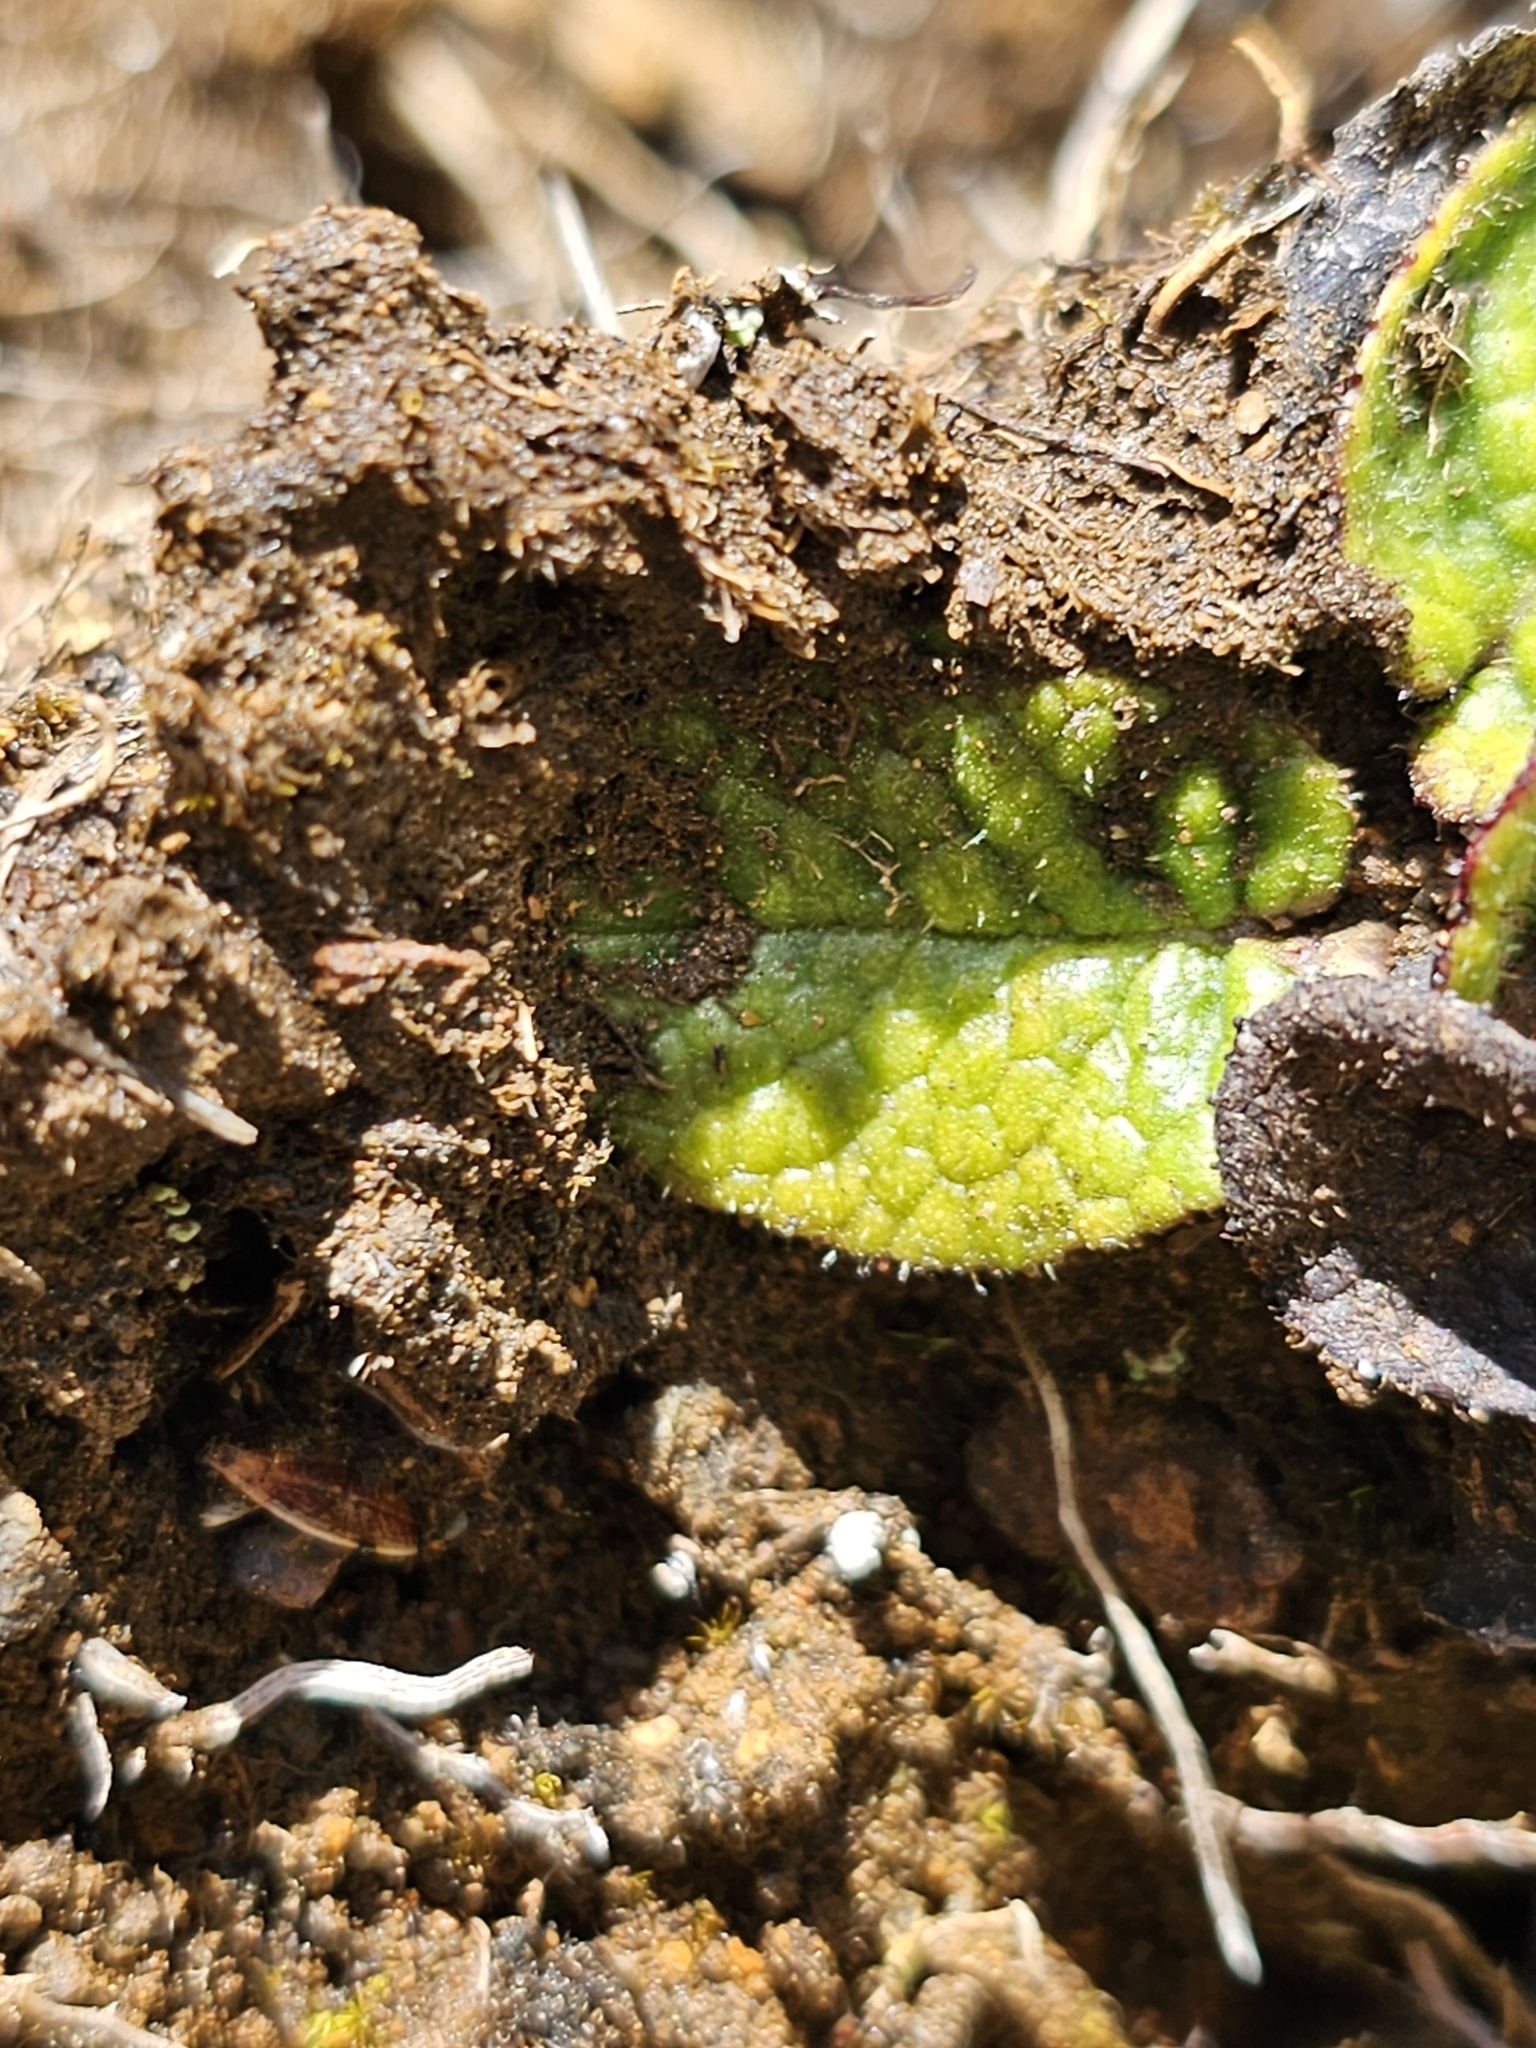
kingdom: Plantae
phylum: Tracheophyta
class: Magnoliopsida
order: Asterales
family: Asteraceae
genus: Brachyglottis
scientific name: Brachyglottis lagopus
